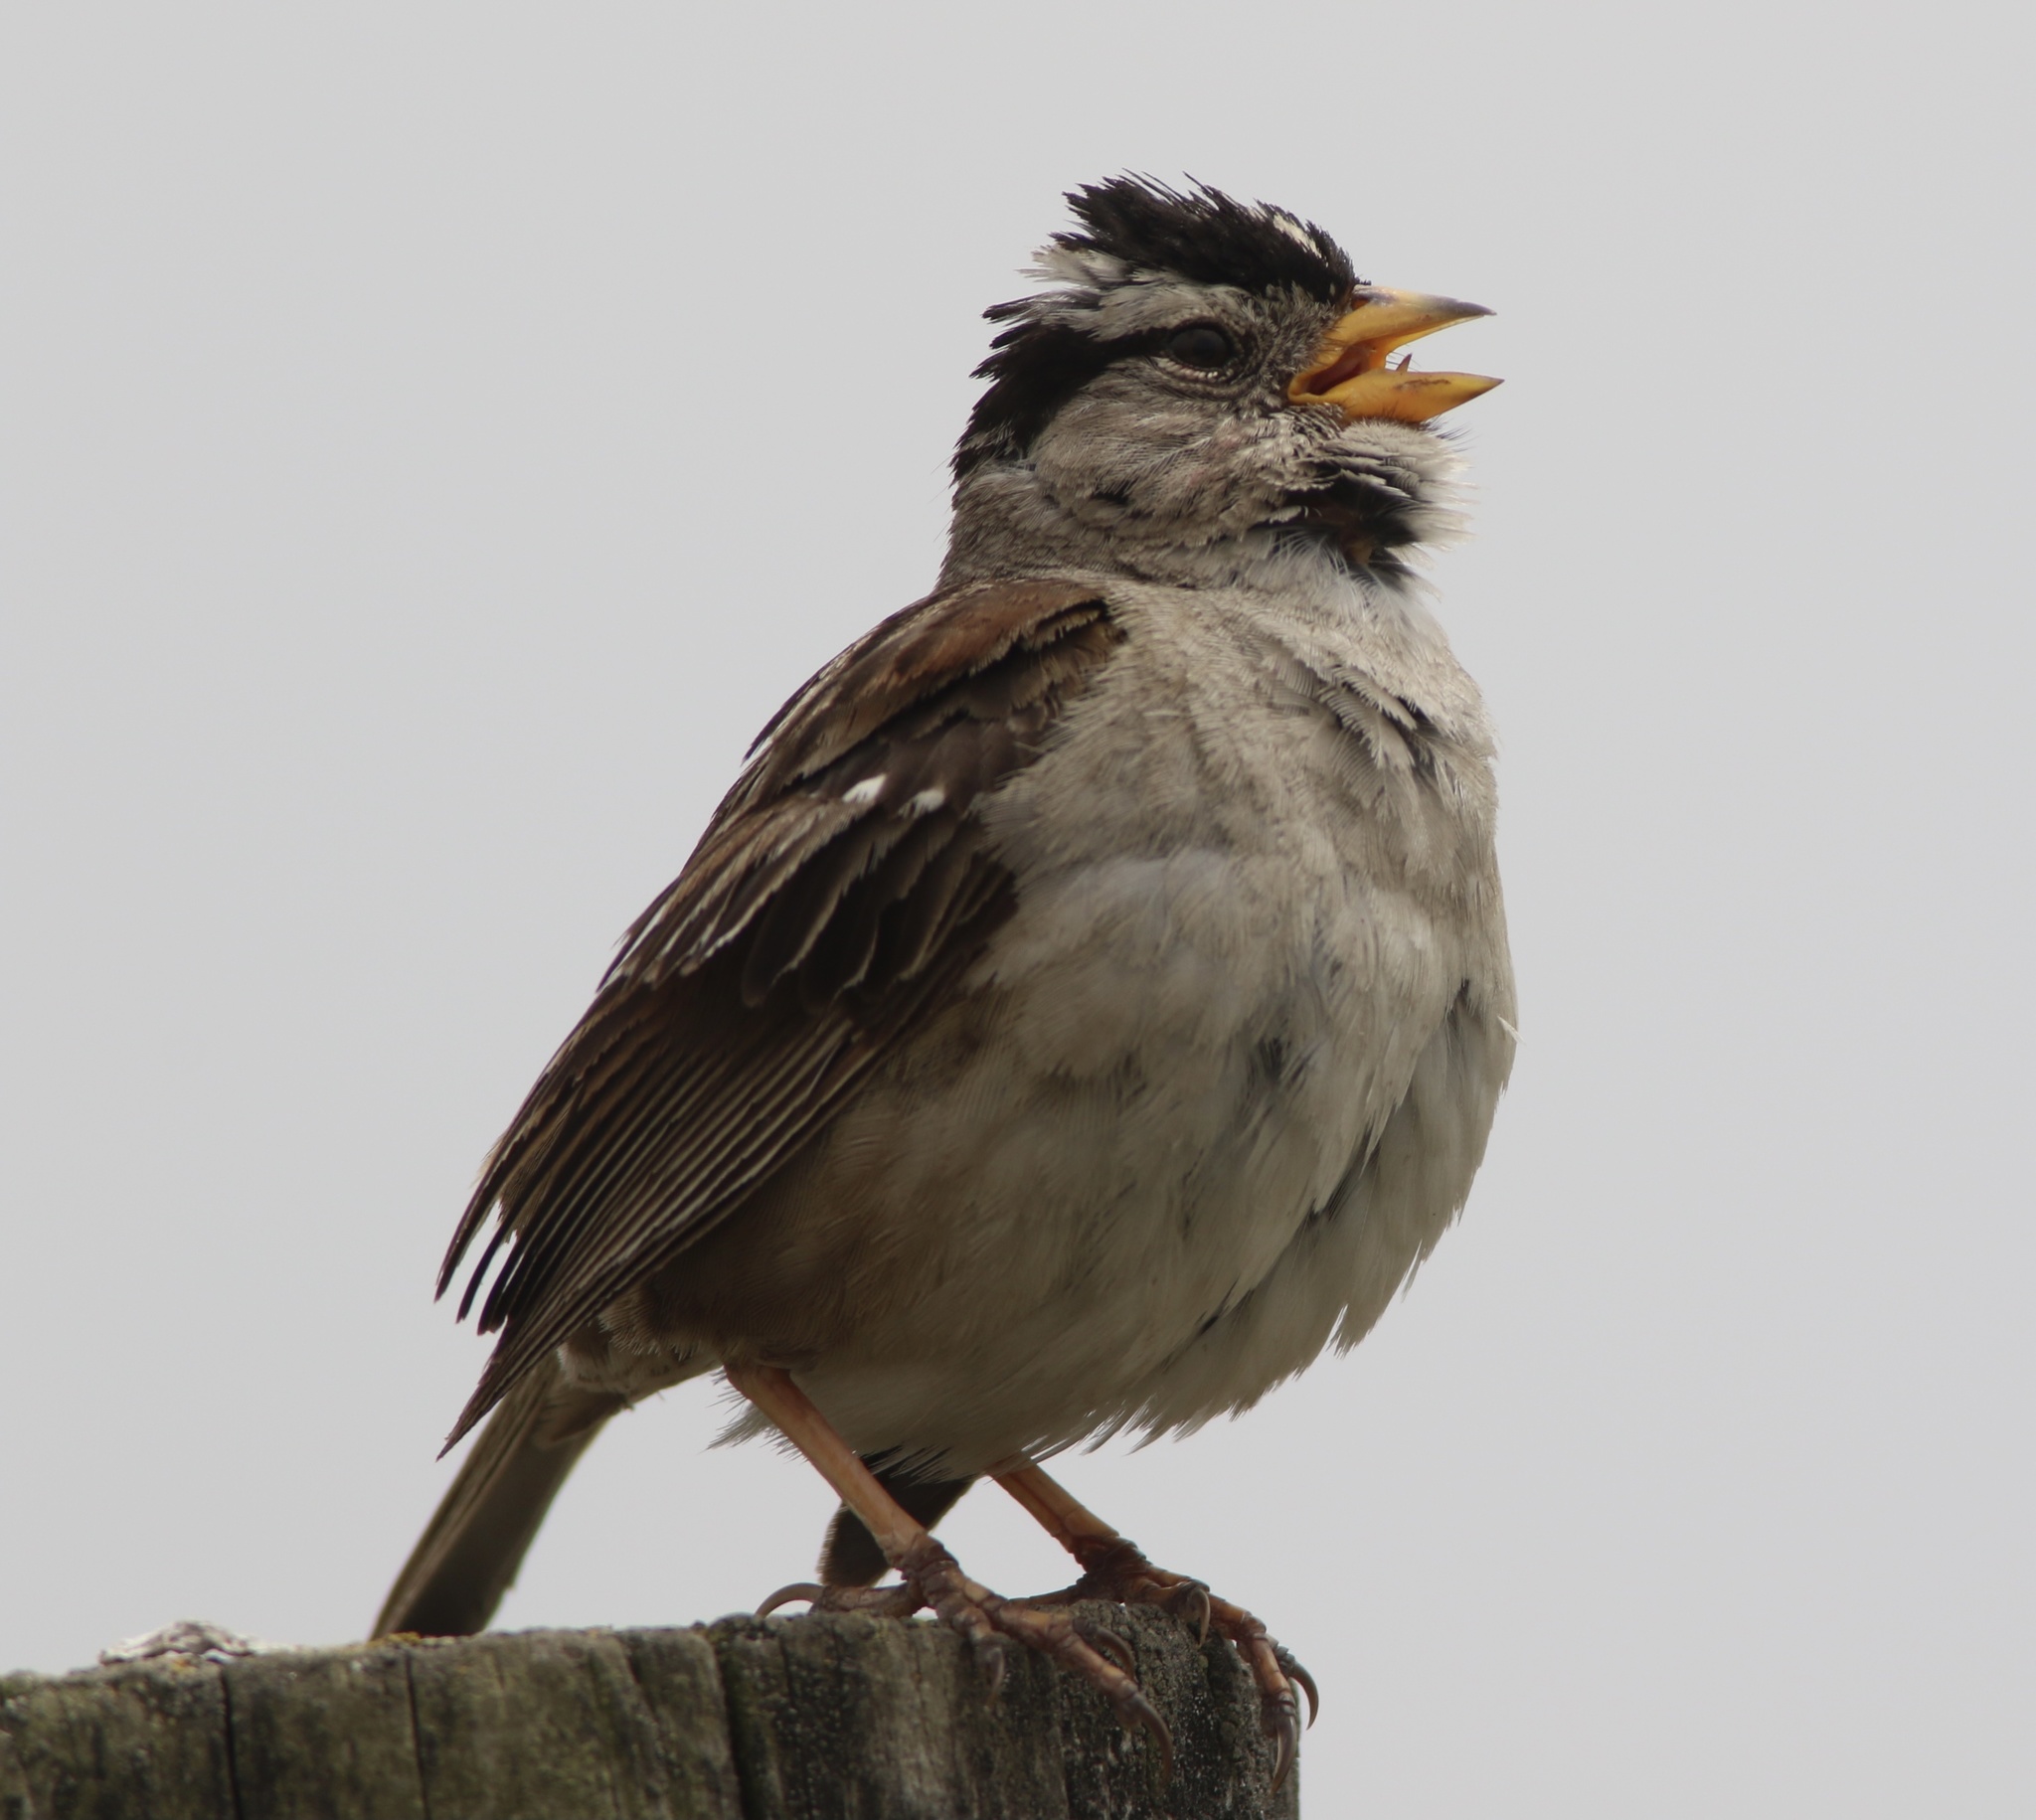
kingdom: Animalia
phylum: Chordata
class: Aves
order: Passeriformes
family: Passerellidae
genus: Zonotrichia
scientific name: Zonotrichia leucophrys
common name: White-crowned sparrow
